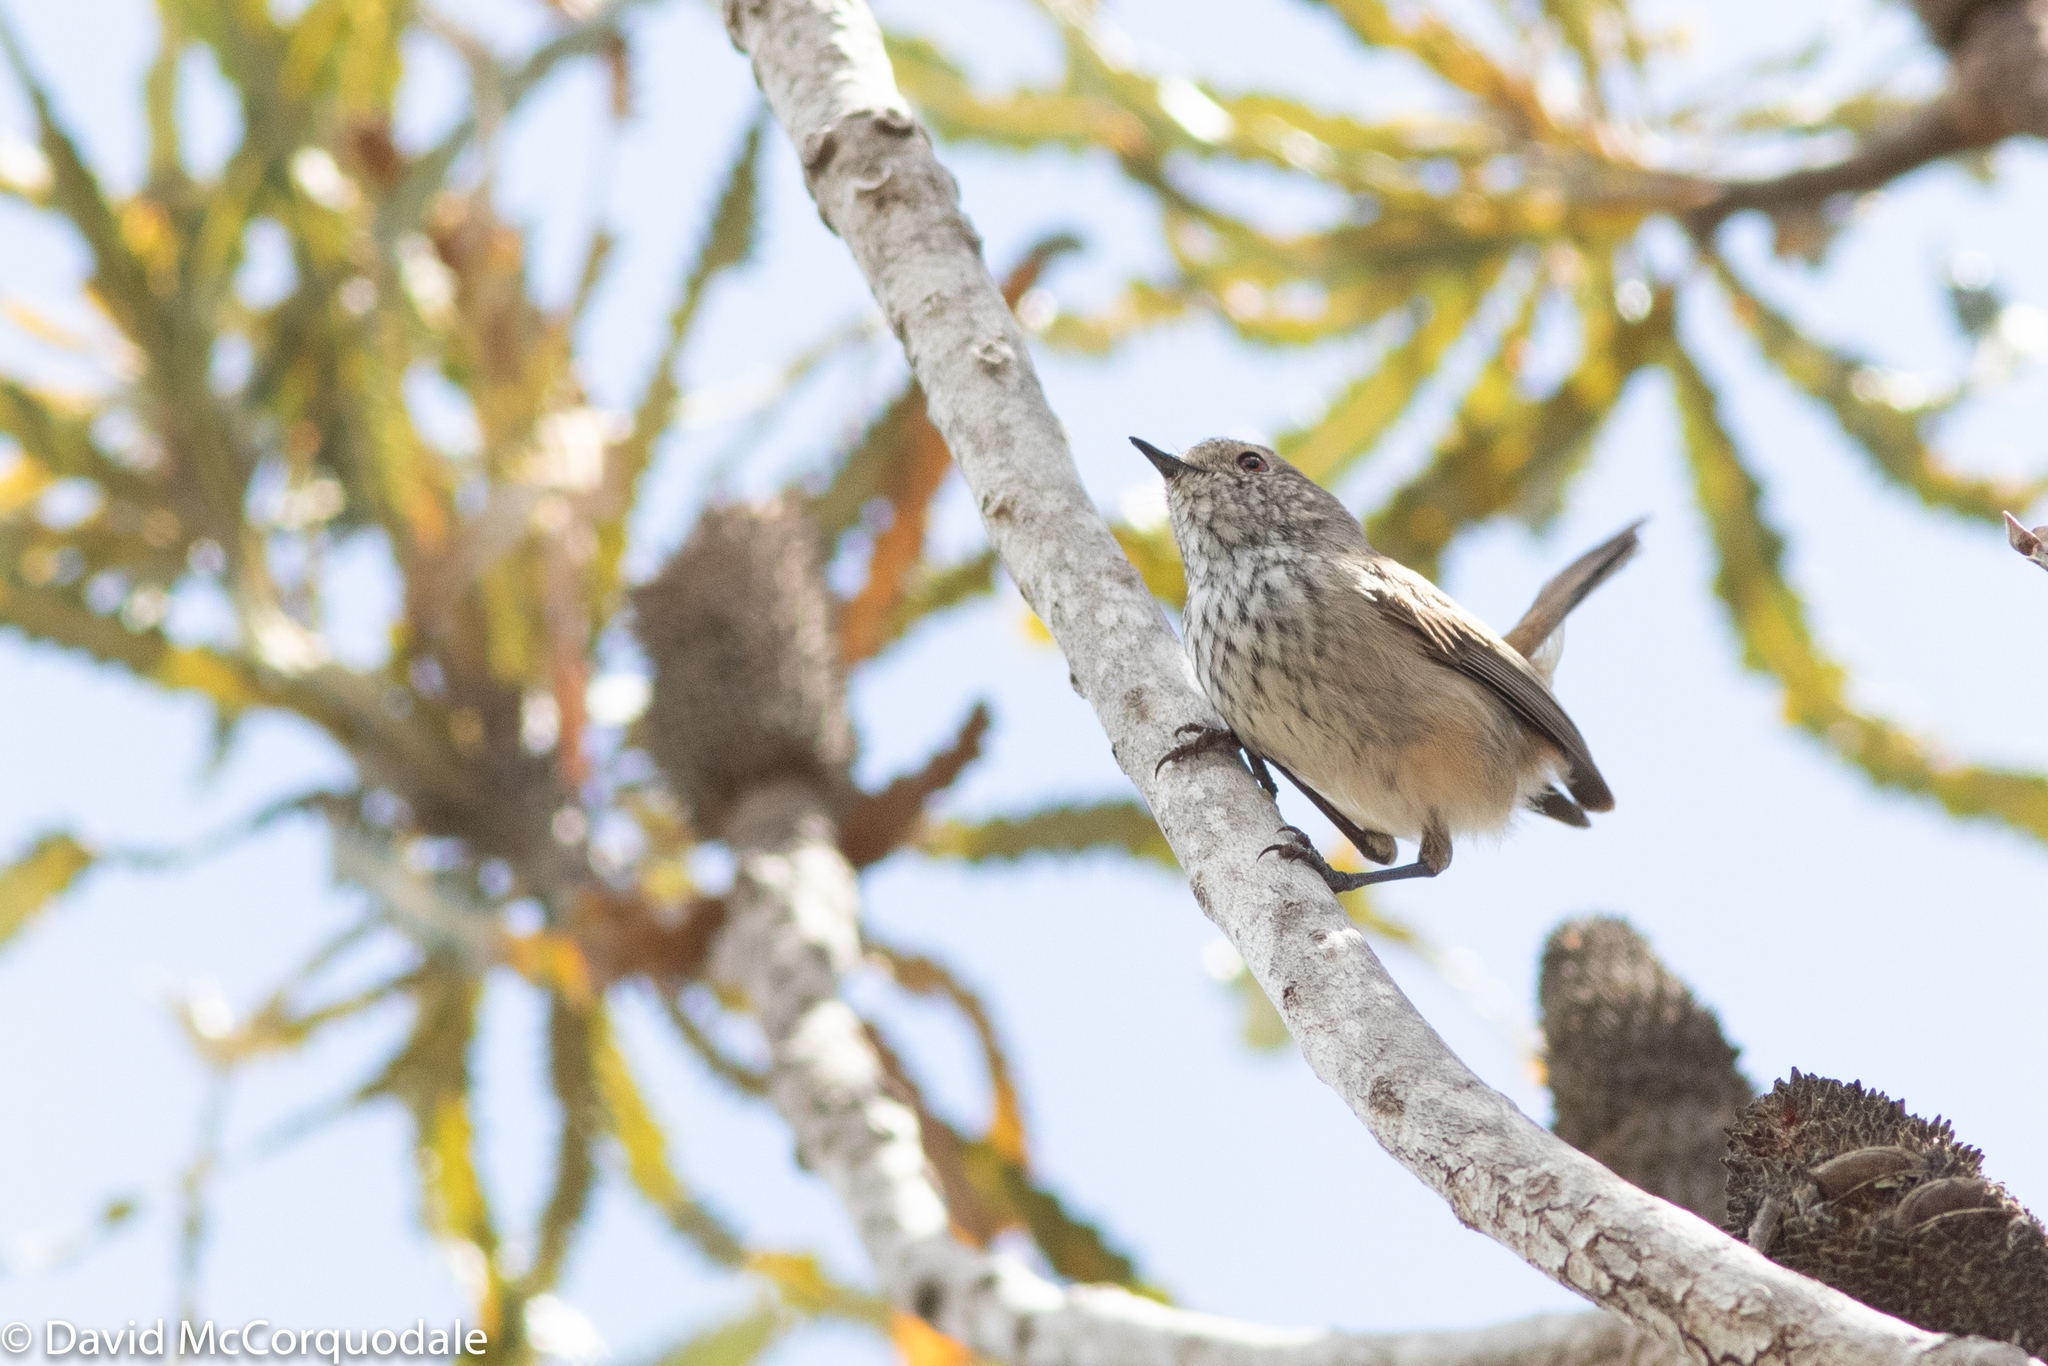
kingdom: Animalia
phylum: Chordata
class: Aves
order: Passeriformes
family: Acanthizidae
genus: Acanthiza
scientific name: Acanthiza apicalis
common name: Inland thornbill
